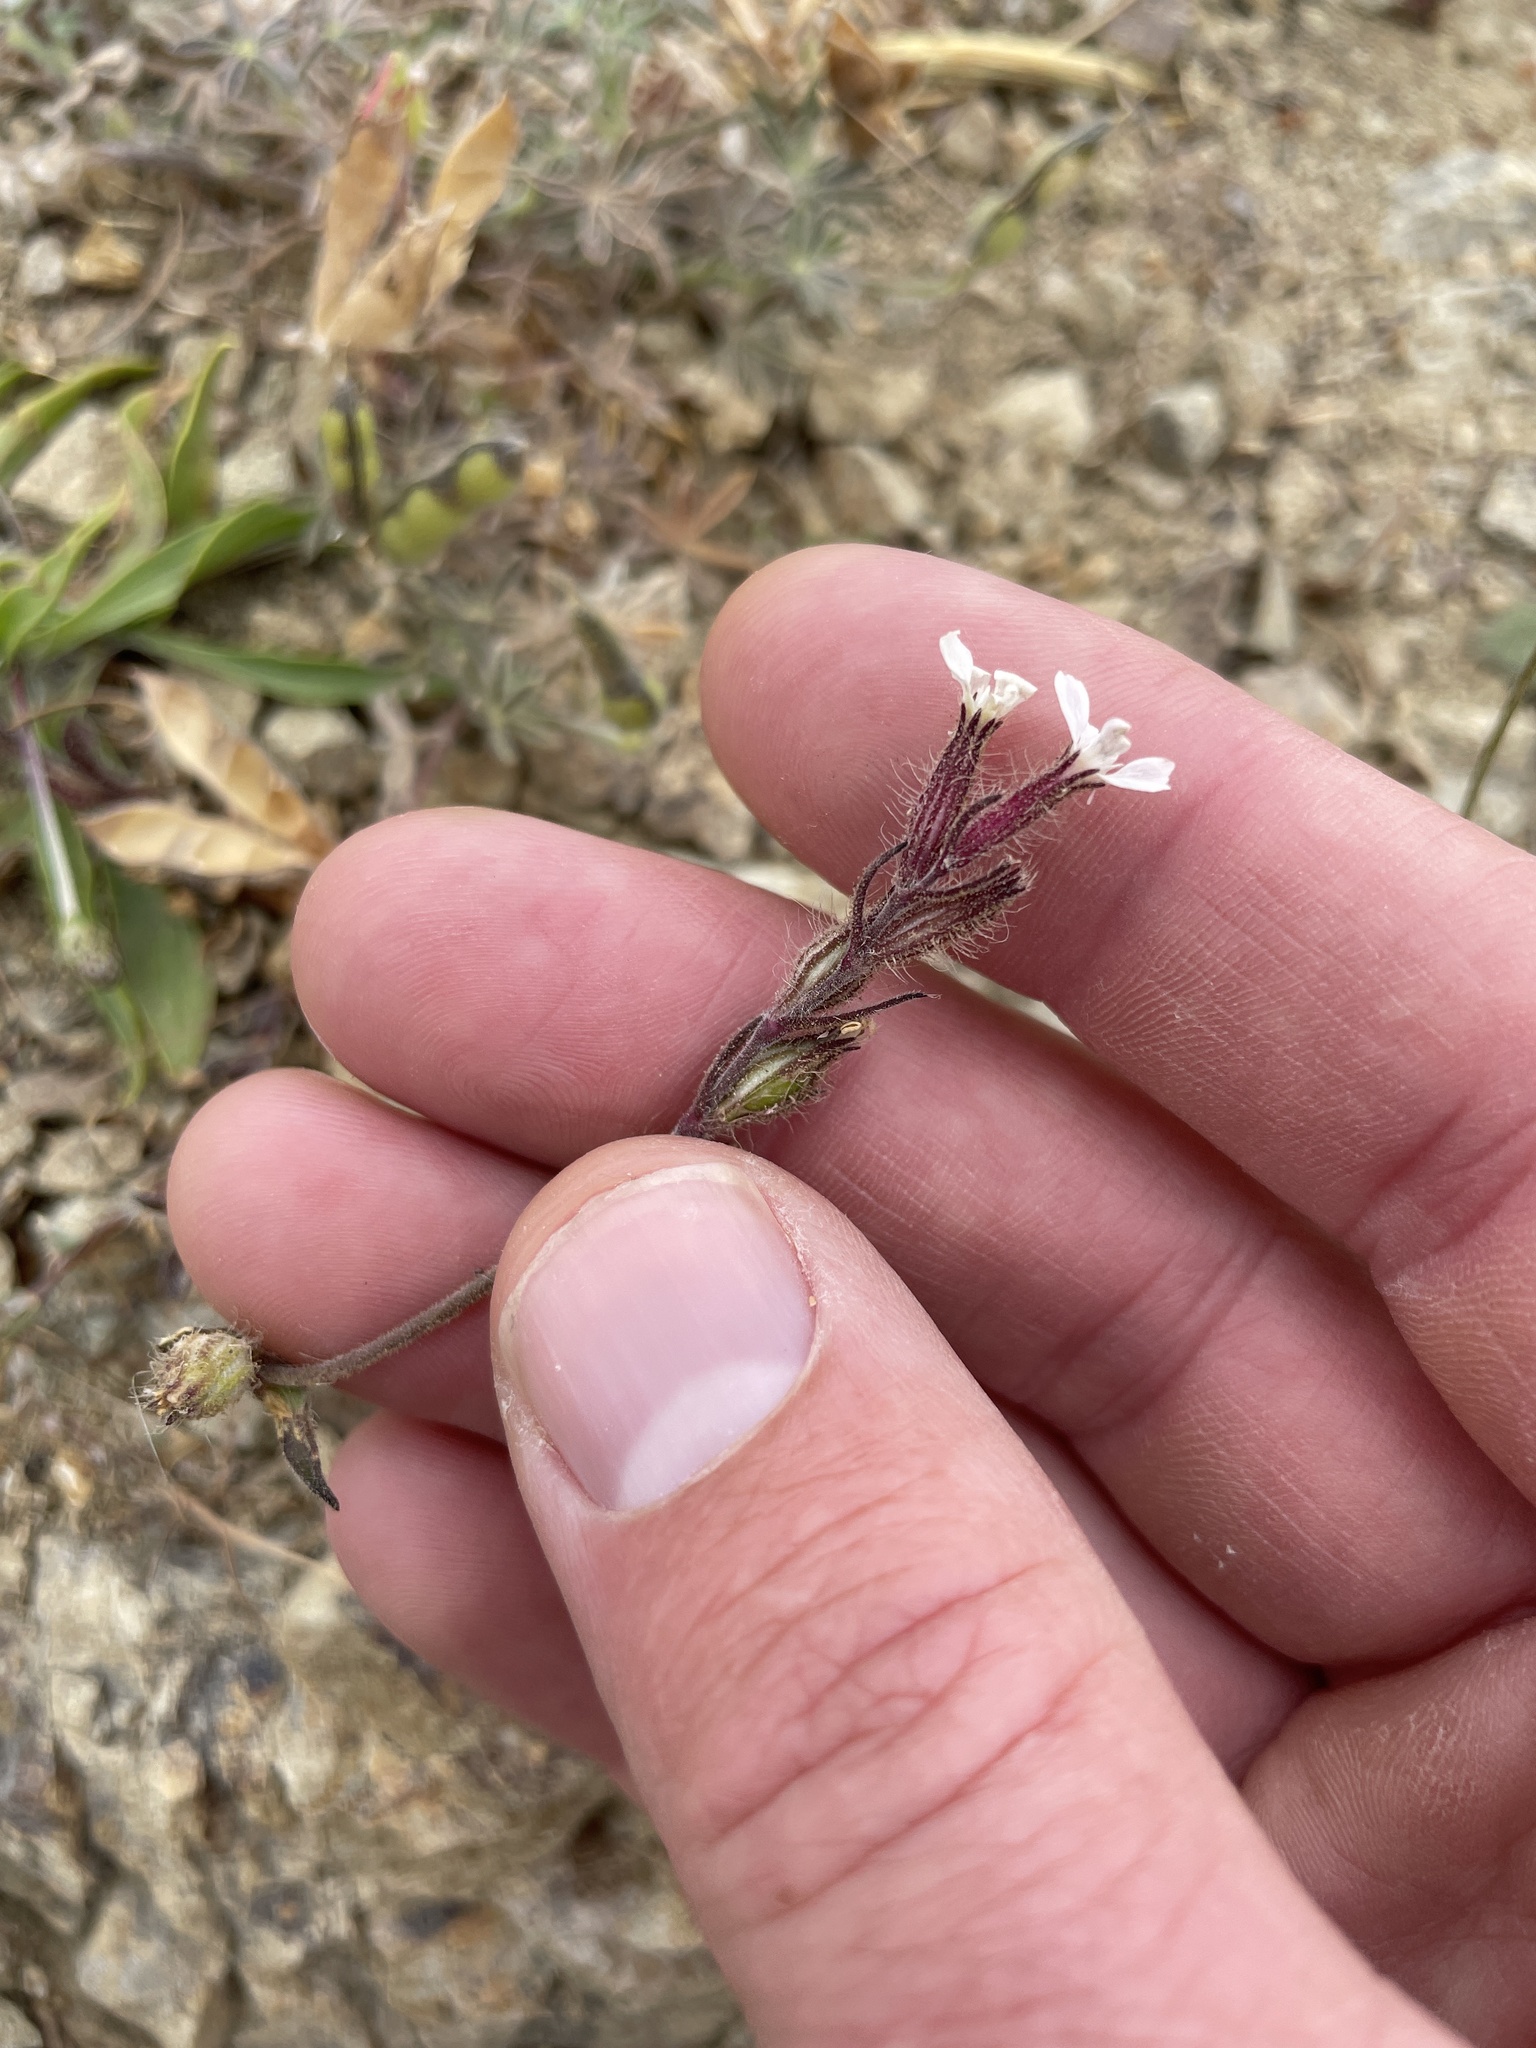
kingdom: Plantae
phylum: Tracheophyta
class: Magnoliopsida
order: Caryophyllales
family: Caryophyllaceae
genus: Silene
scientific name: Silene gallica
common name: Small-flowered catchfly
